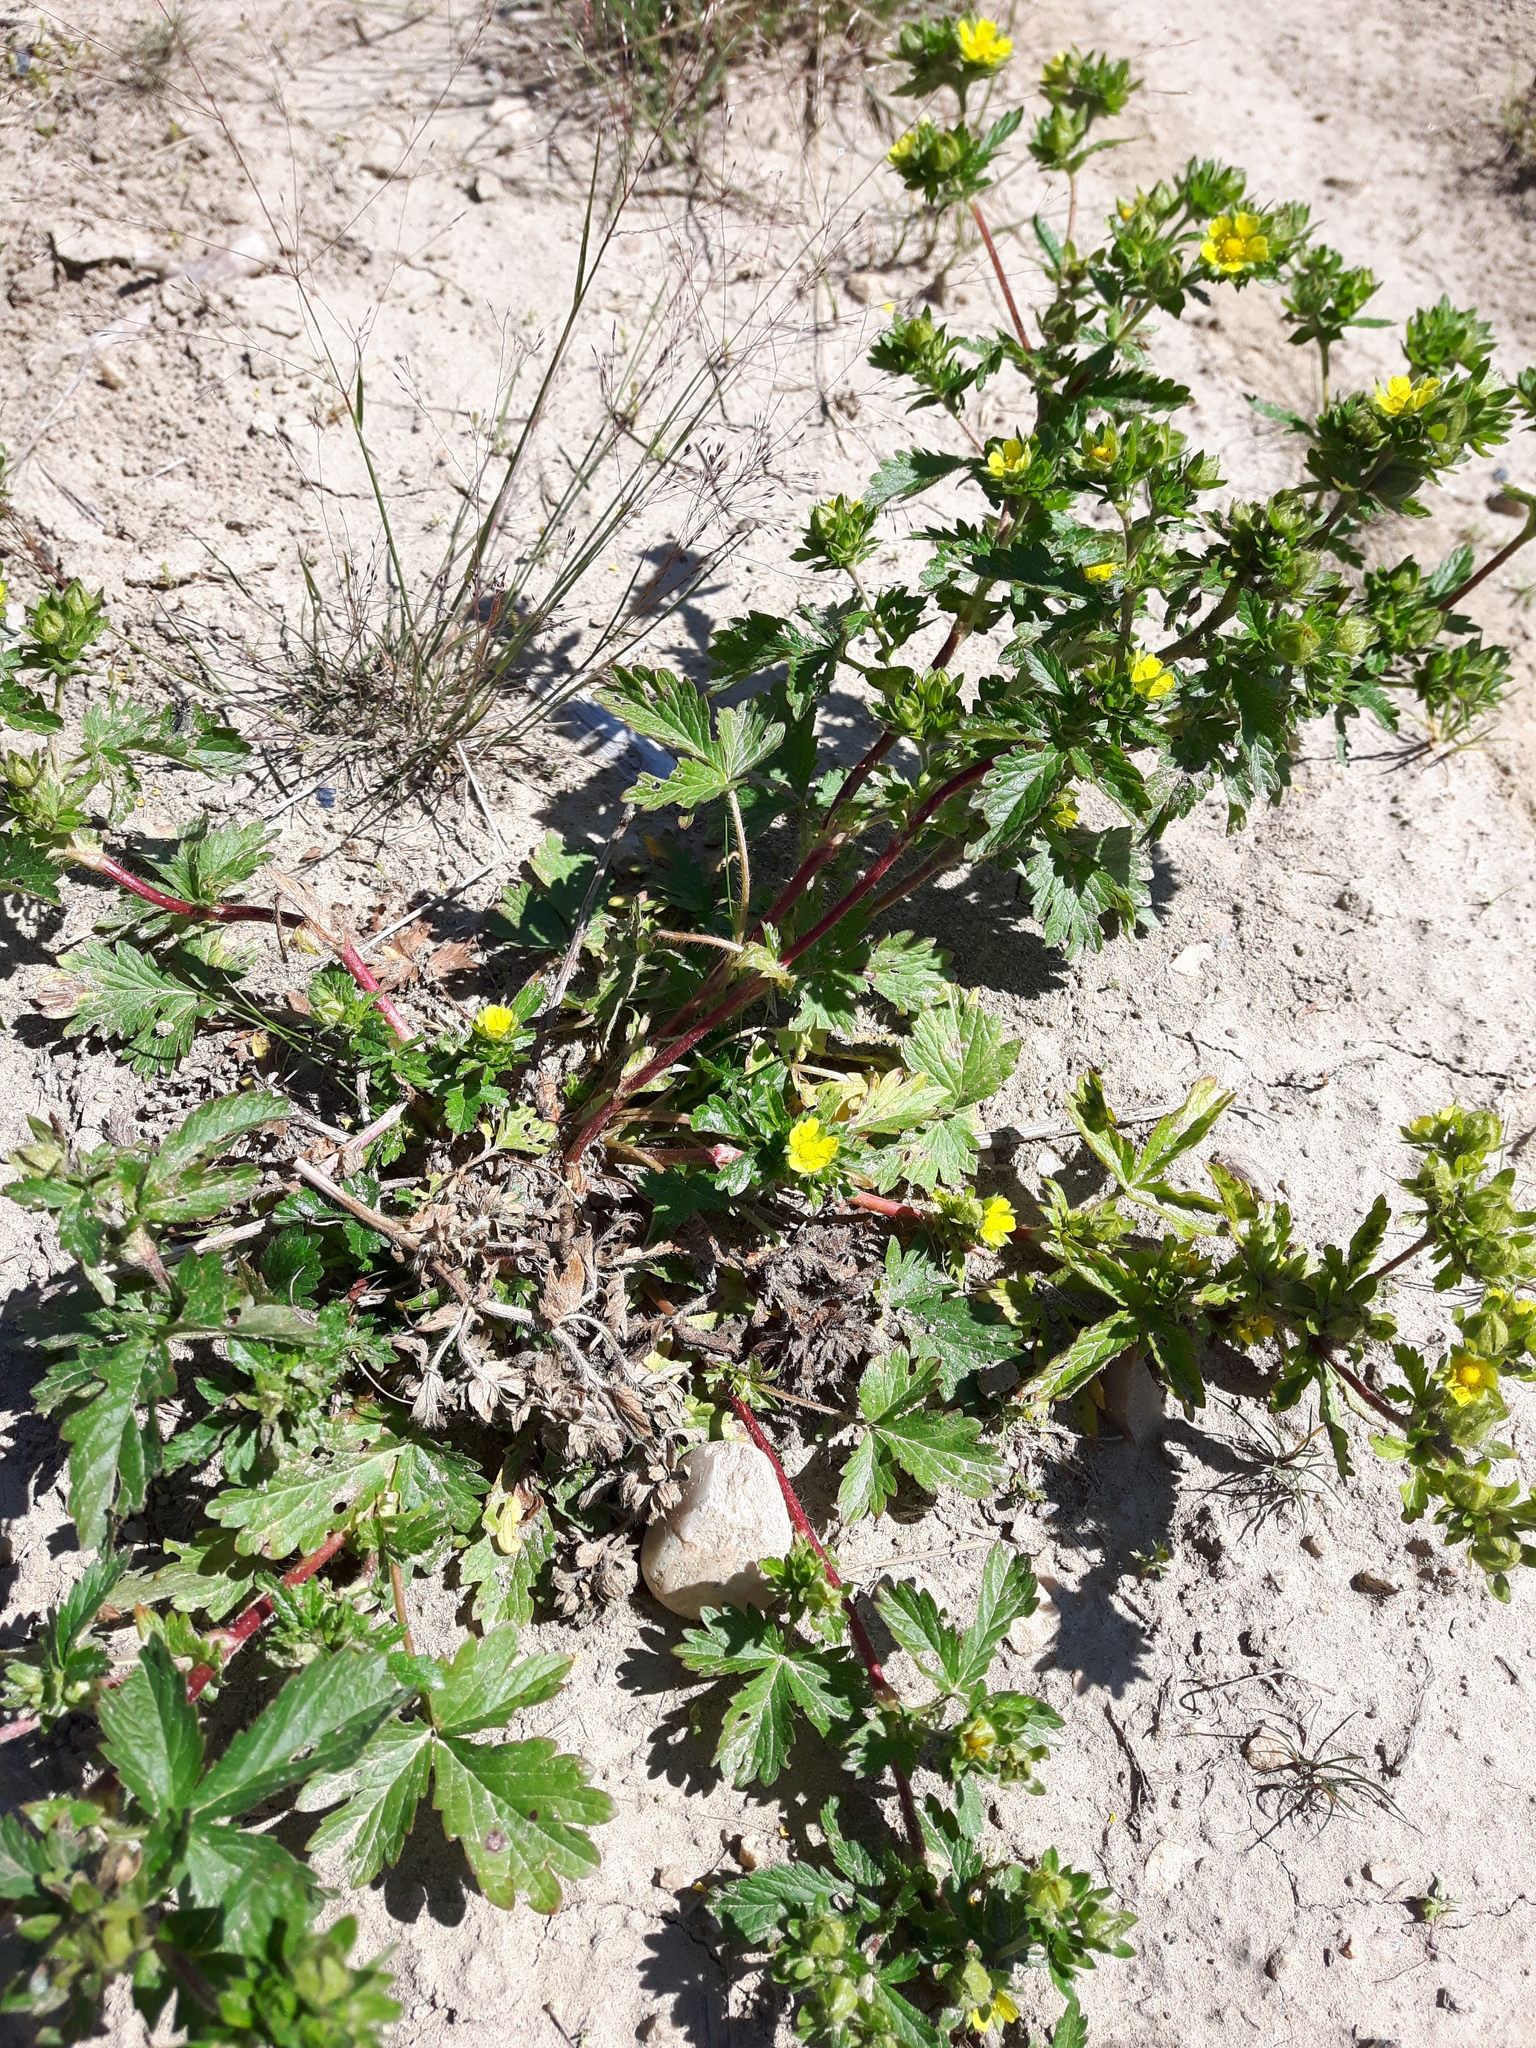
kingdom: Plantae
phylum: Tracheophyta
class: Magnoliopsida
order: Rosales
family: Rosaceae
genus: Potentilla
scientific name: Potentilla norvegica
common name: Ternate-leaved cinquefoil
